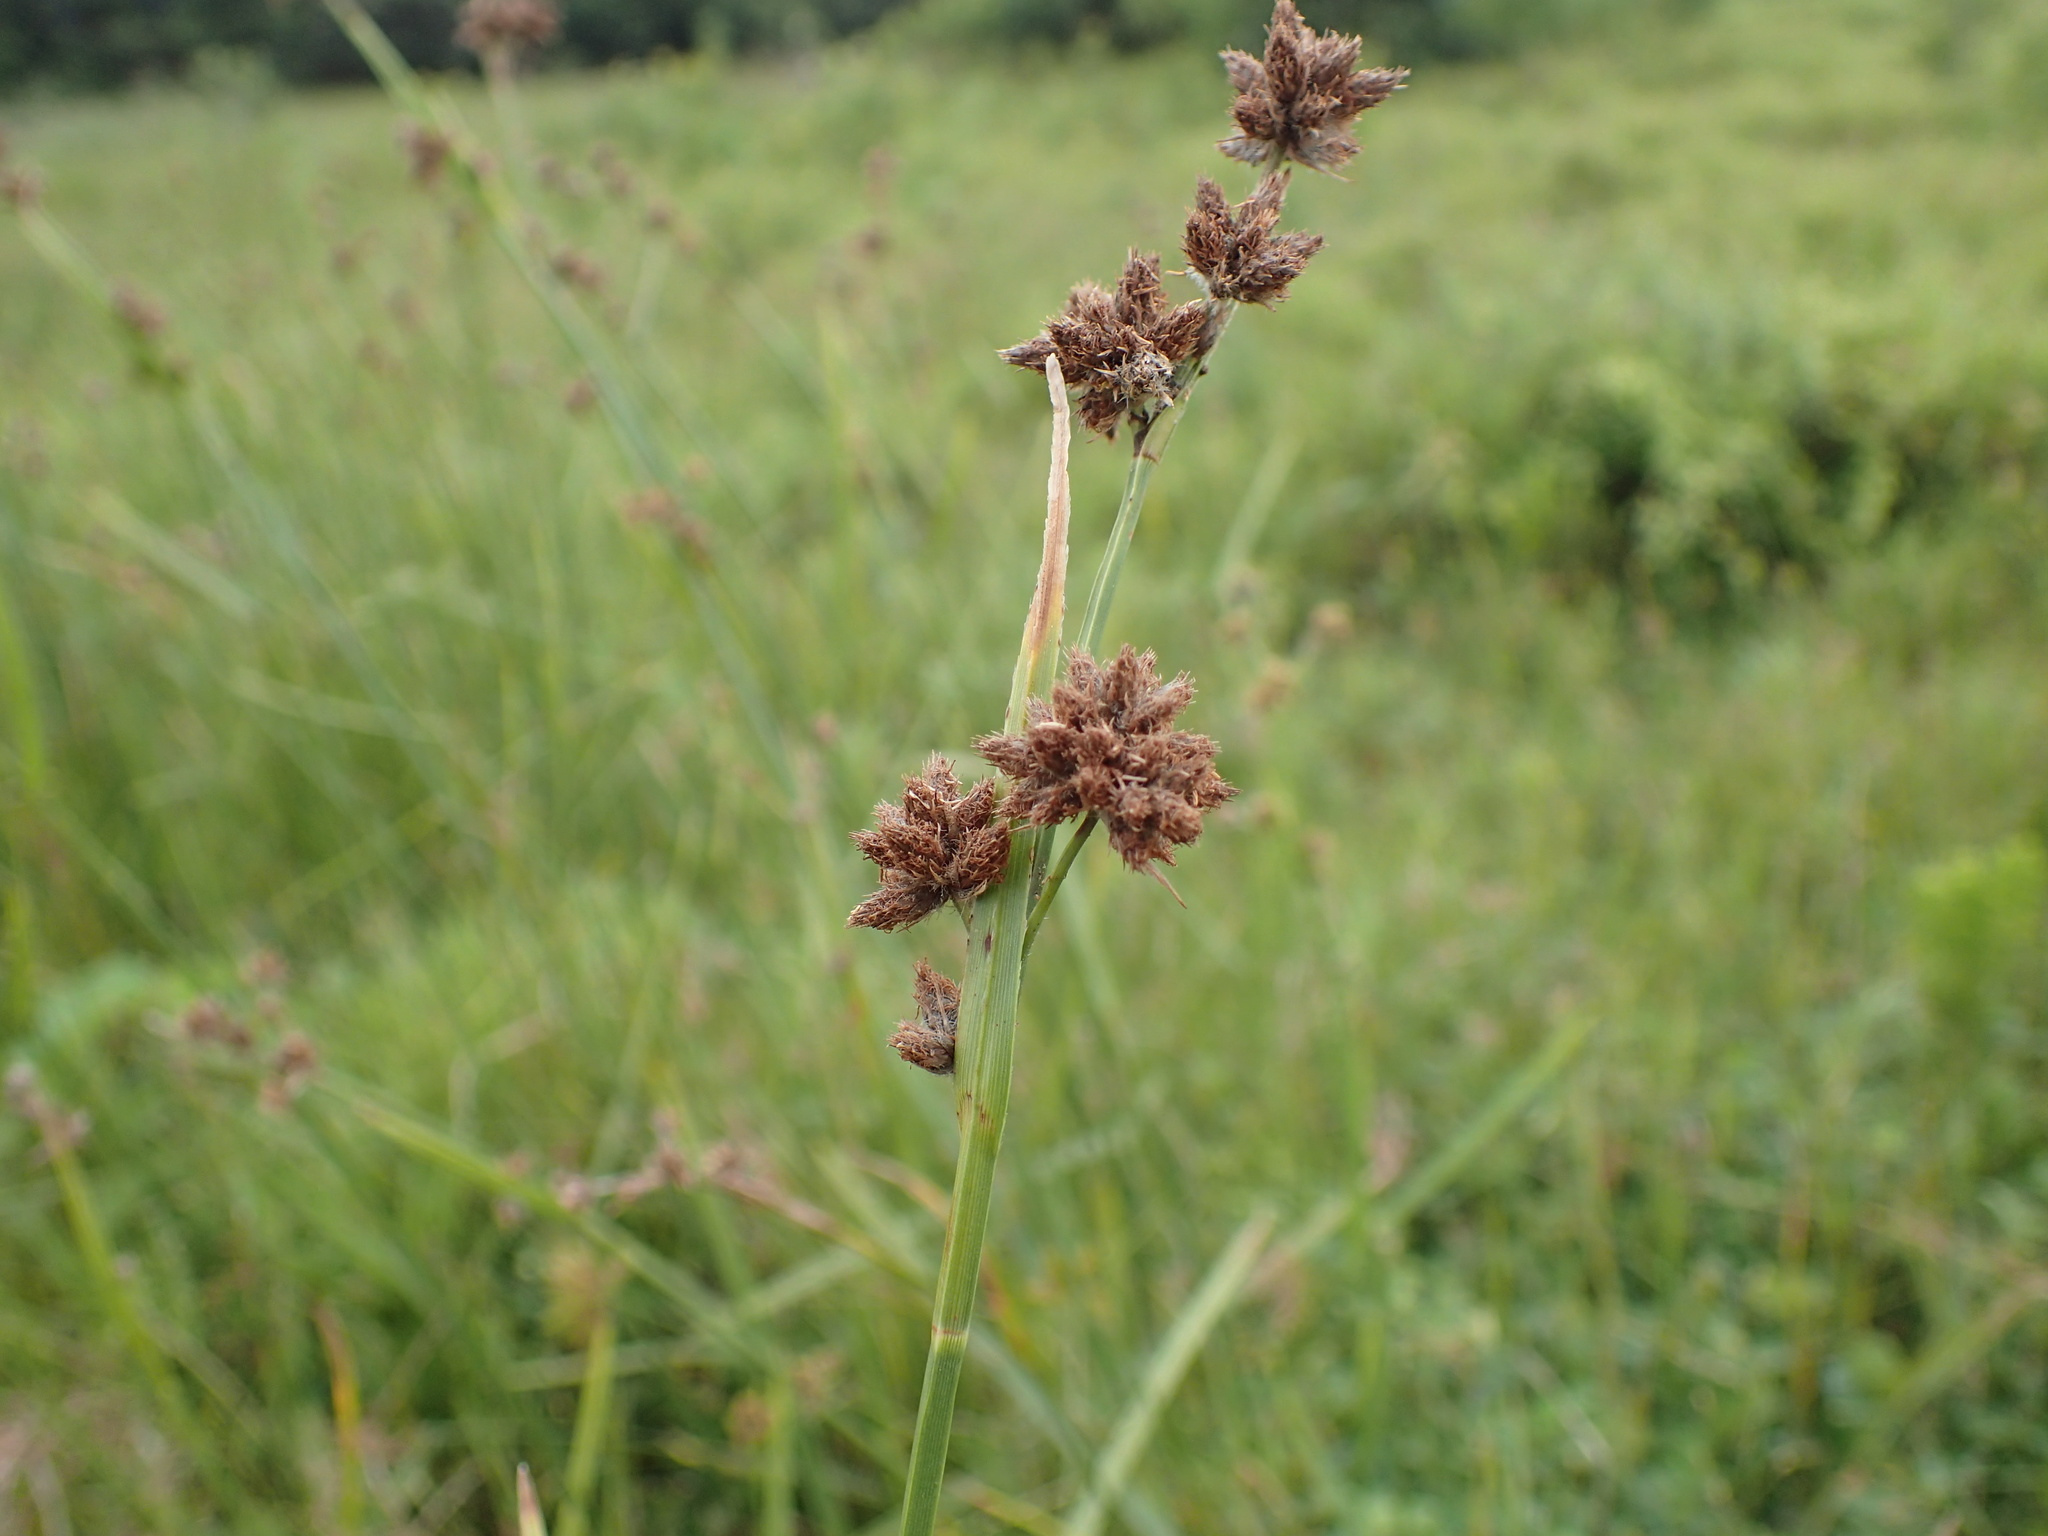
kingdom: Plantae
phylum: Tracheophyta
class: Liliopsida
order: Poales
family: Cyperaceae
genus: Fuirena
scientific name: Fuirena obcordata
